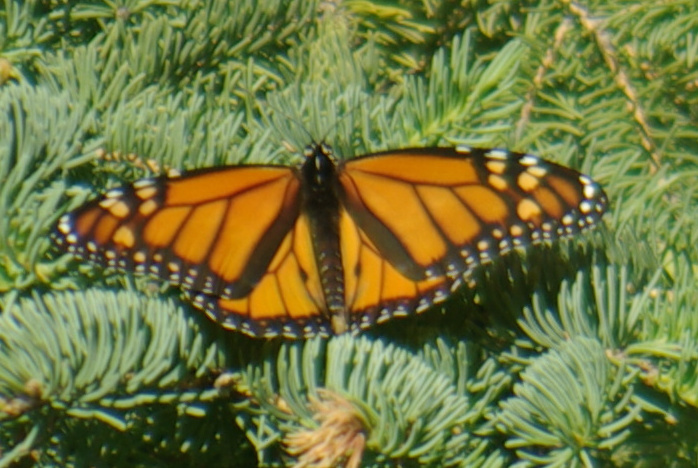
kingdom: Animalia
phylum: Arthropoda
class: Insecta
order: Lepidoptera
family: Nymphalidae
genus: Danaus
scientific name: Danaus plexippus
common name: Monarch
